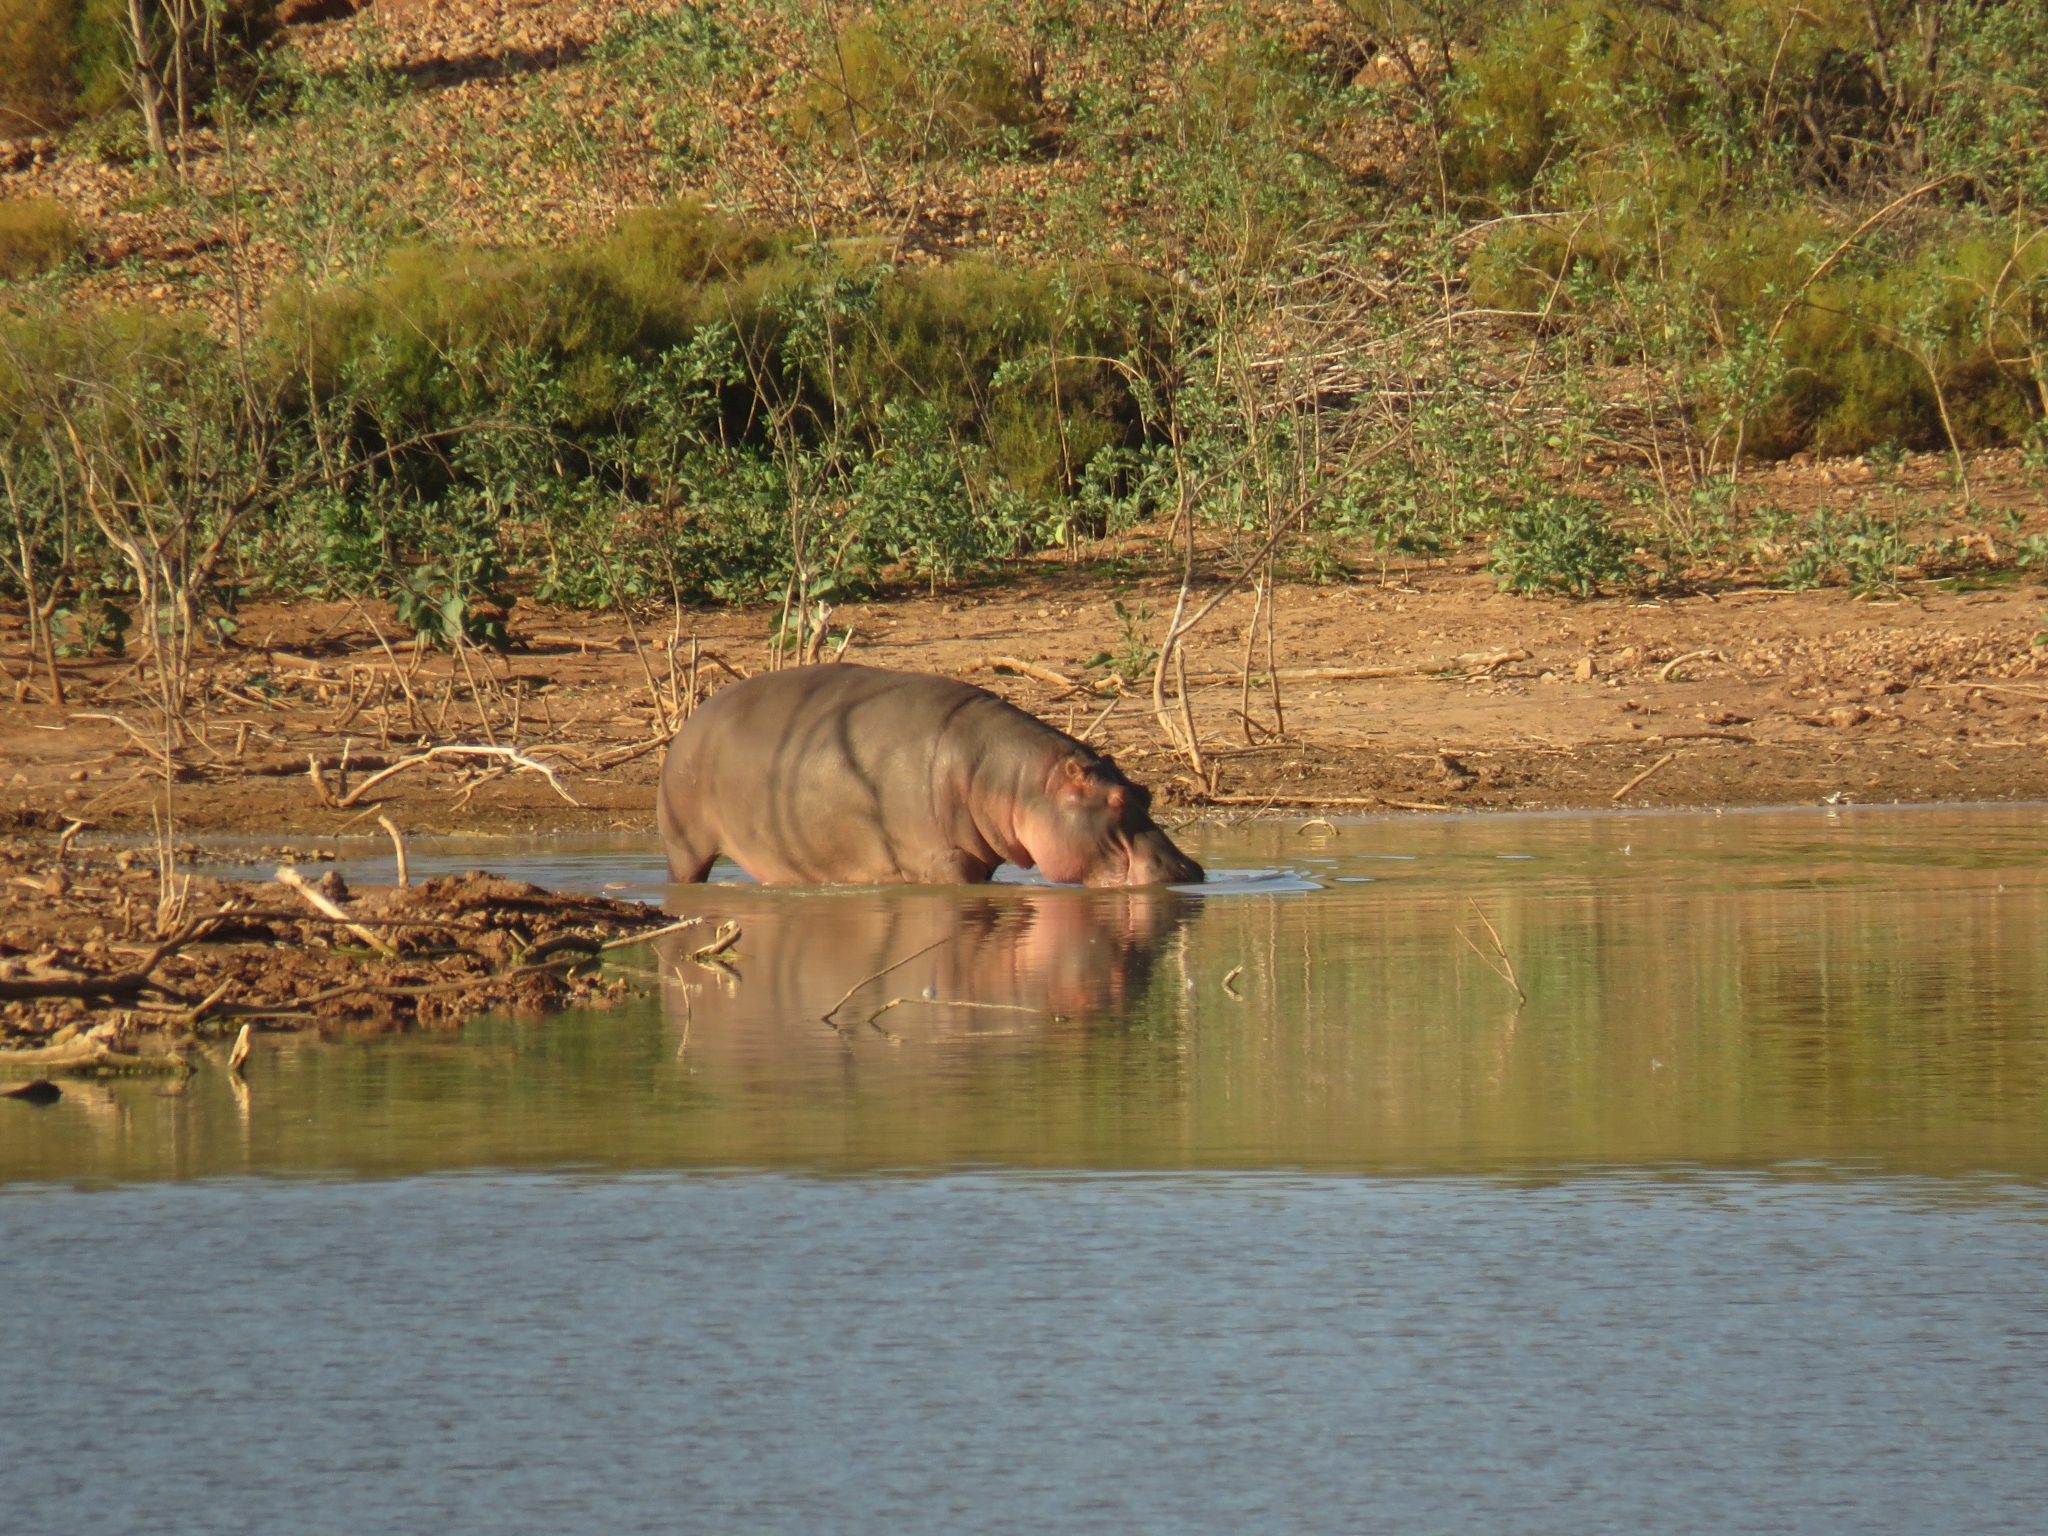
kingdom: Animalia
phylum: Chordata
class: Mammalia
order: Artiodactyla
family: Hippopotamidae
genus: Hippopotamus
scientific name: Hippopotamus amphibius
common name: Common hippopotamus
